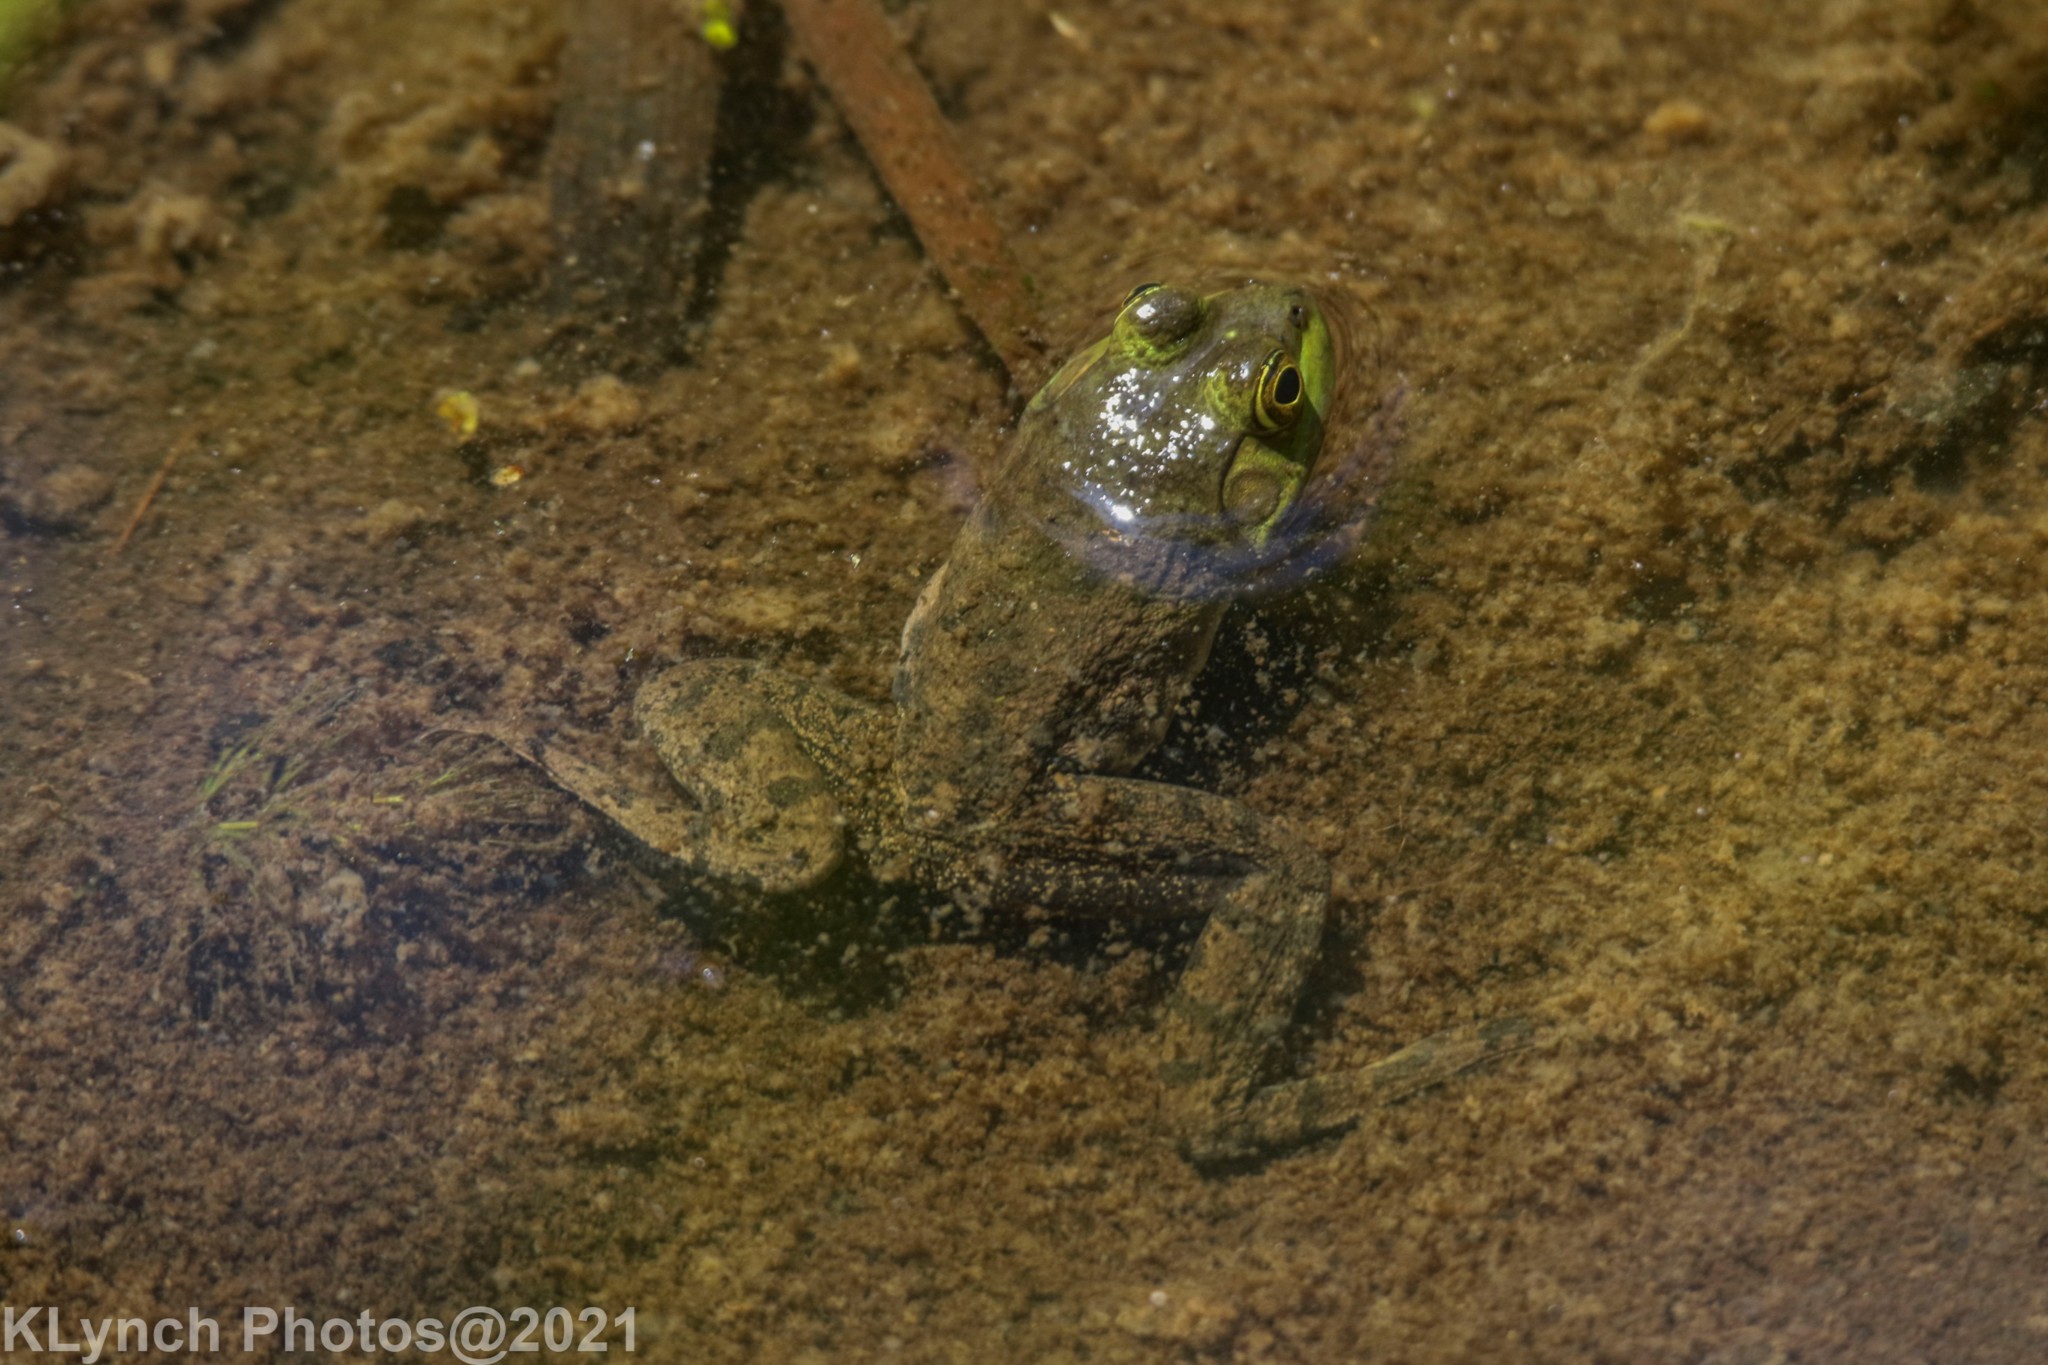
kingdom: Animalia
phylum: Chordata
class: Amphibia
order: Anura
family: Ranidae
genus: Lithobates
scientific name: Lithobates catesbeianus
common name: American bullfrog
